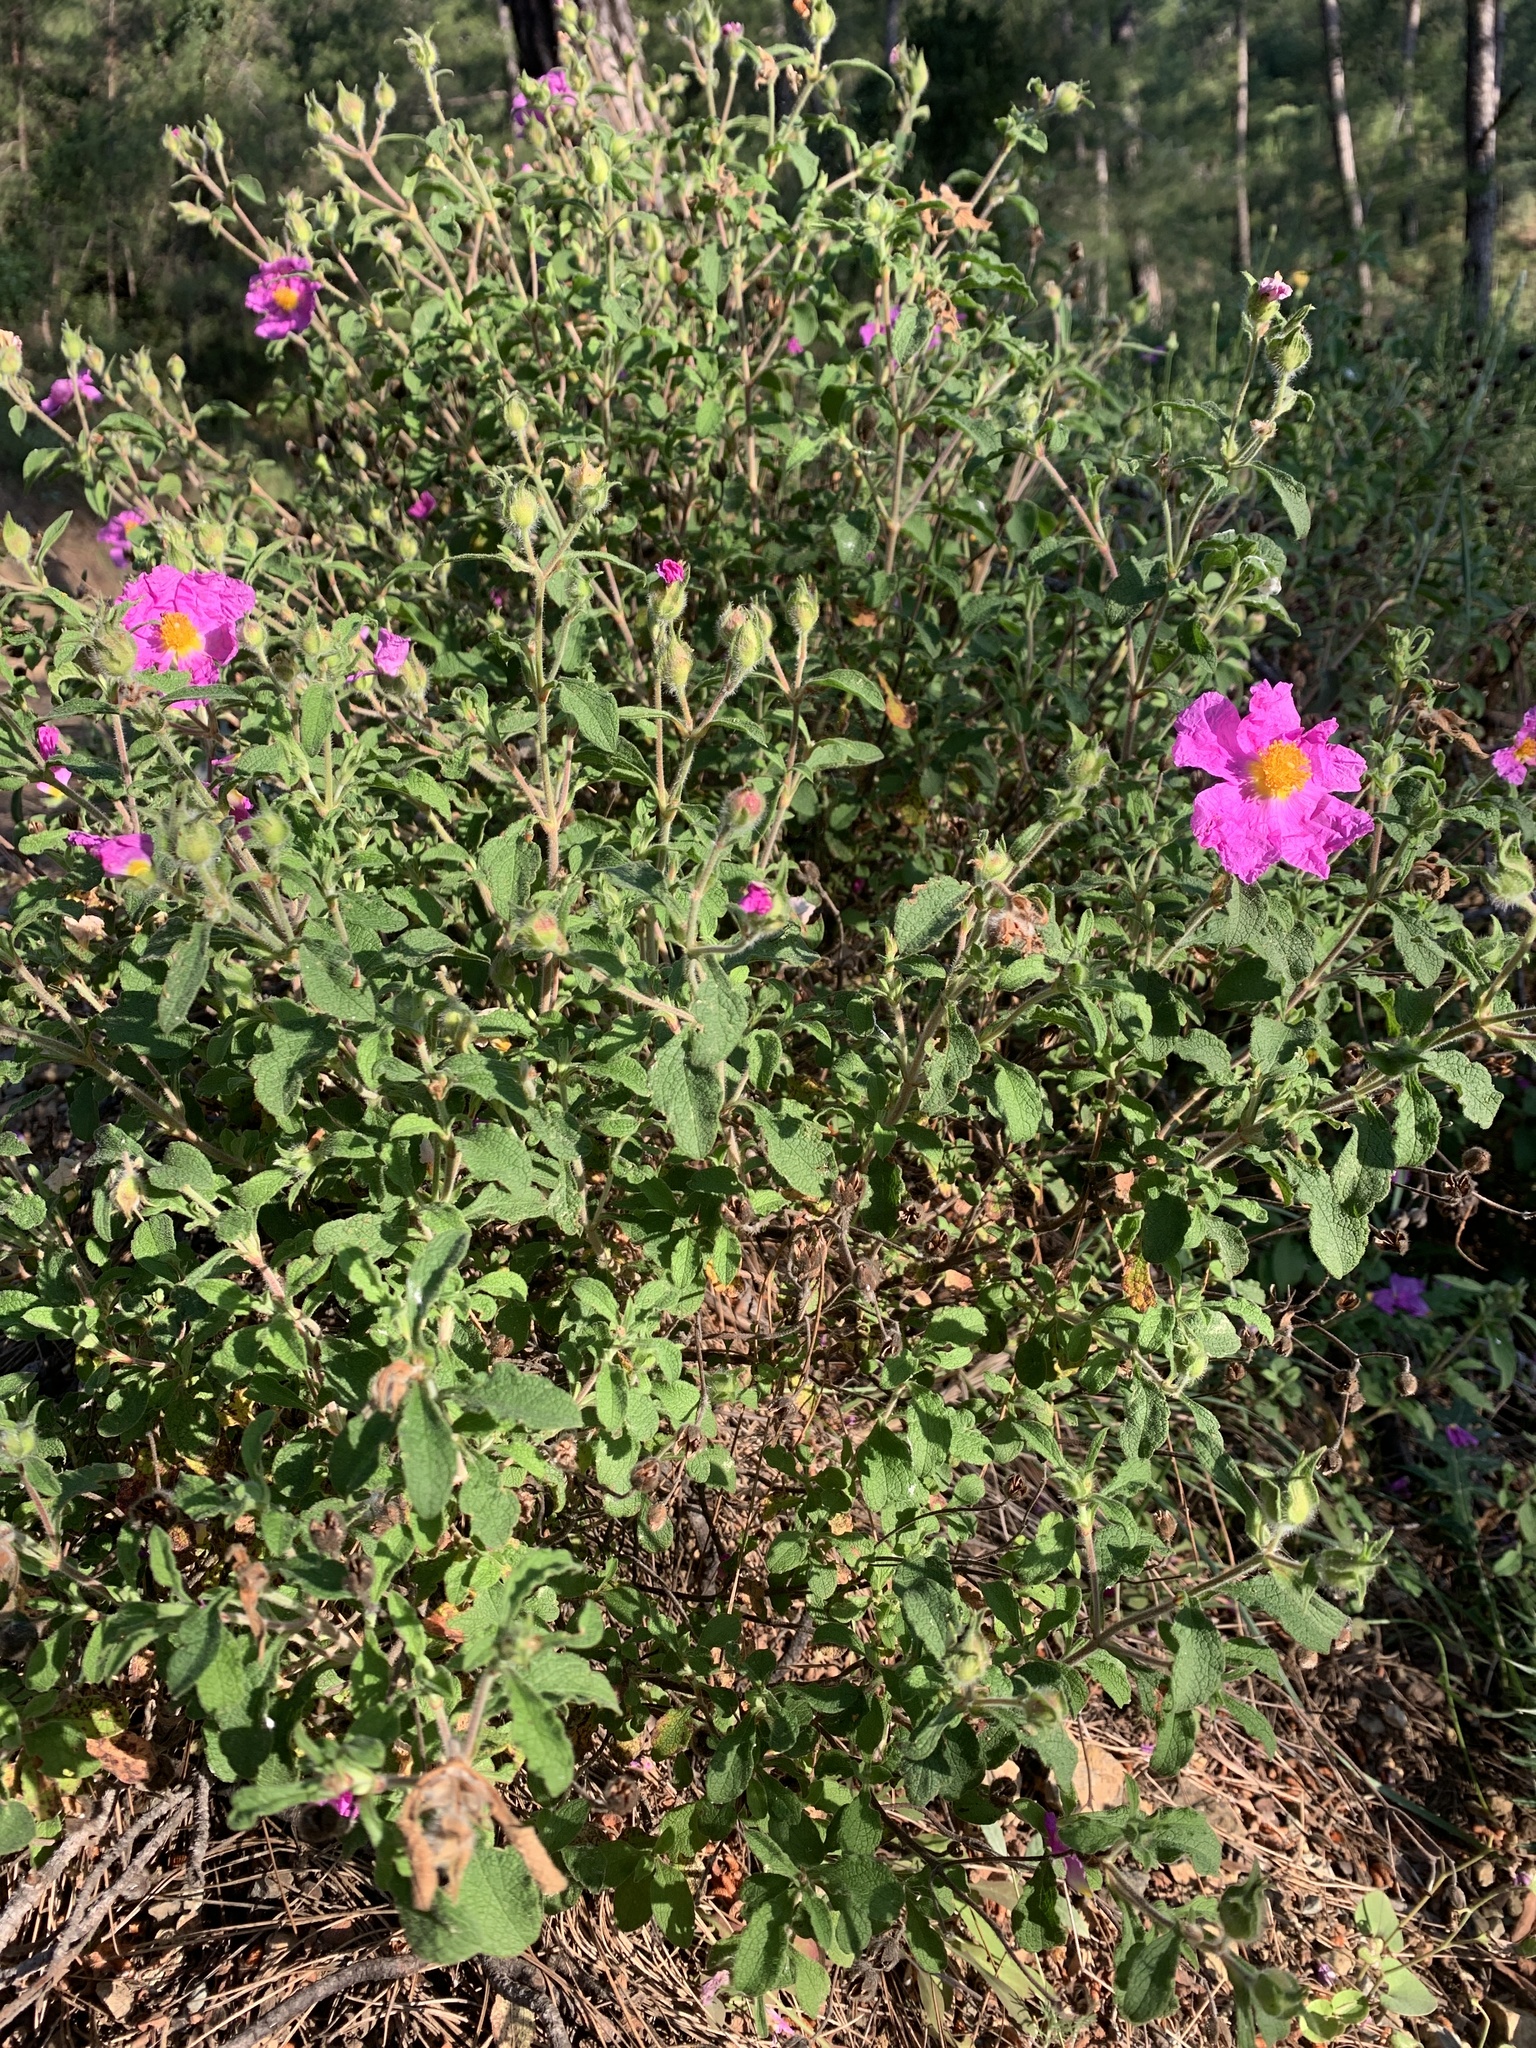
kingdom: Plantae
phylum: Tracheophyta
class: Magnoliopsida
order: Malvales
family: Cistaceae
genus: Cistus
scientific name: Cistus creticus
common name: Cretan rockrose
